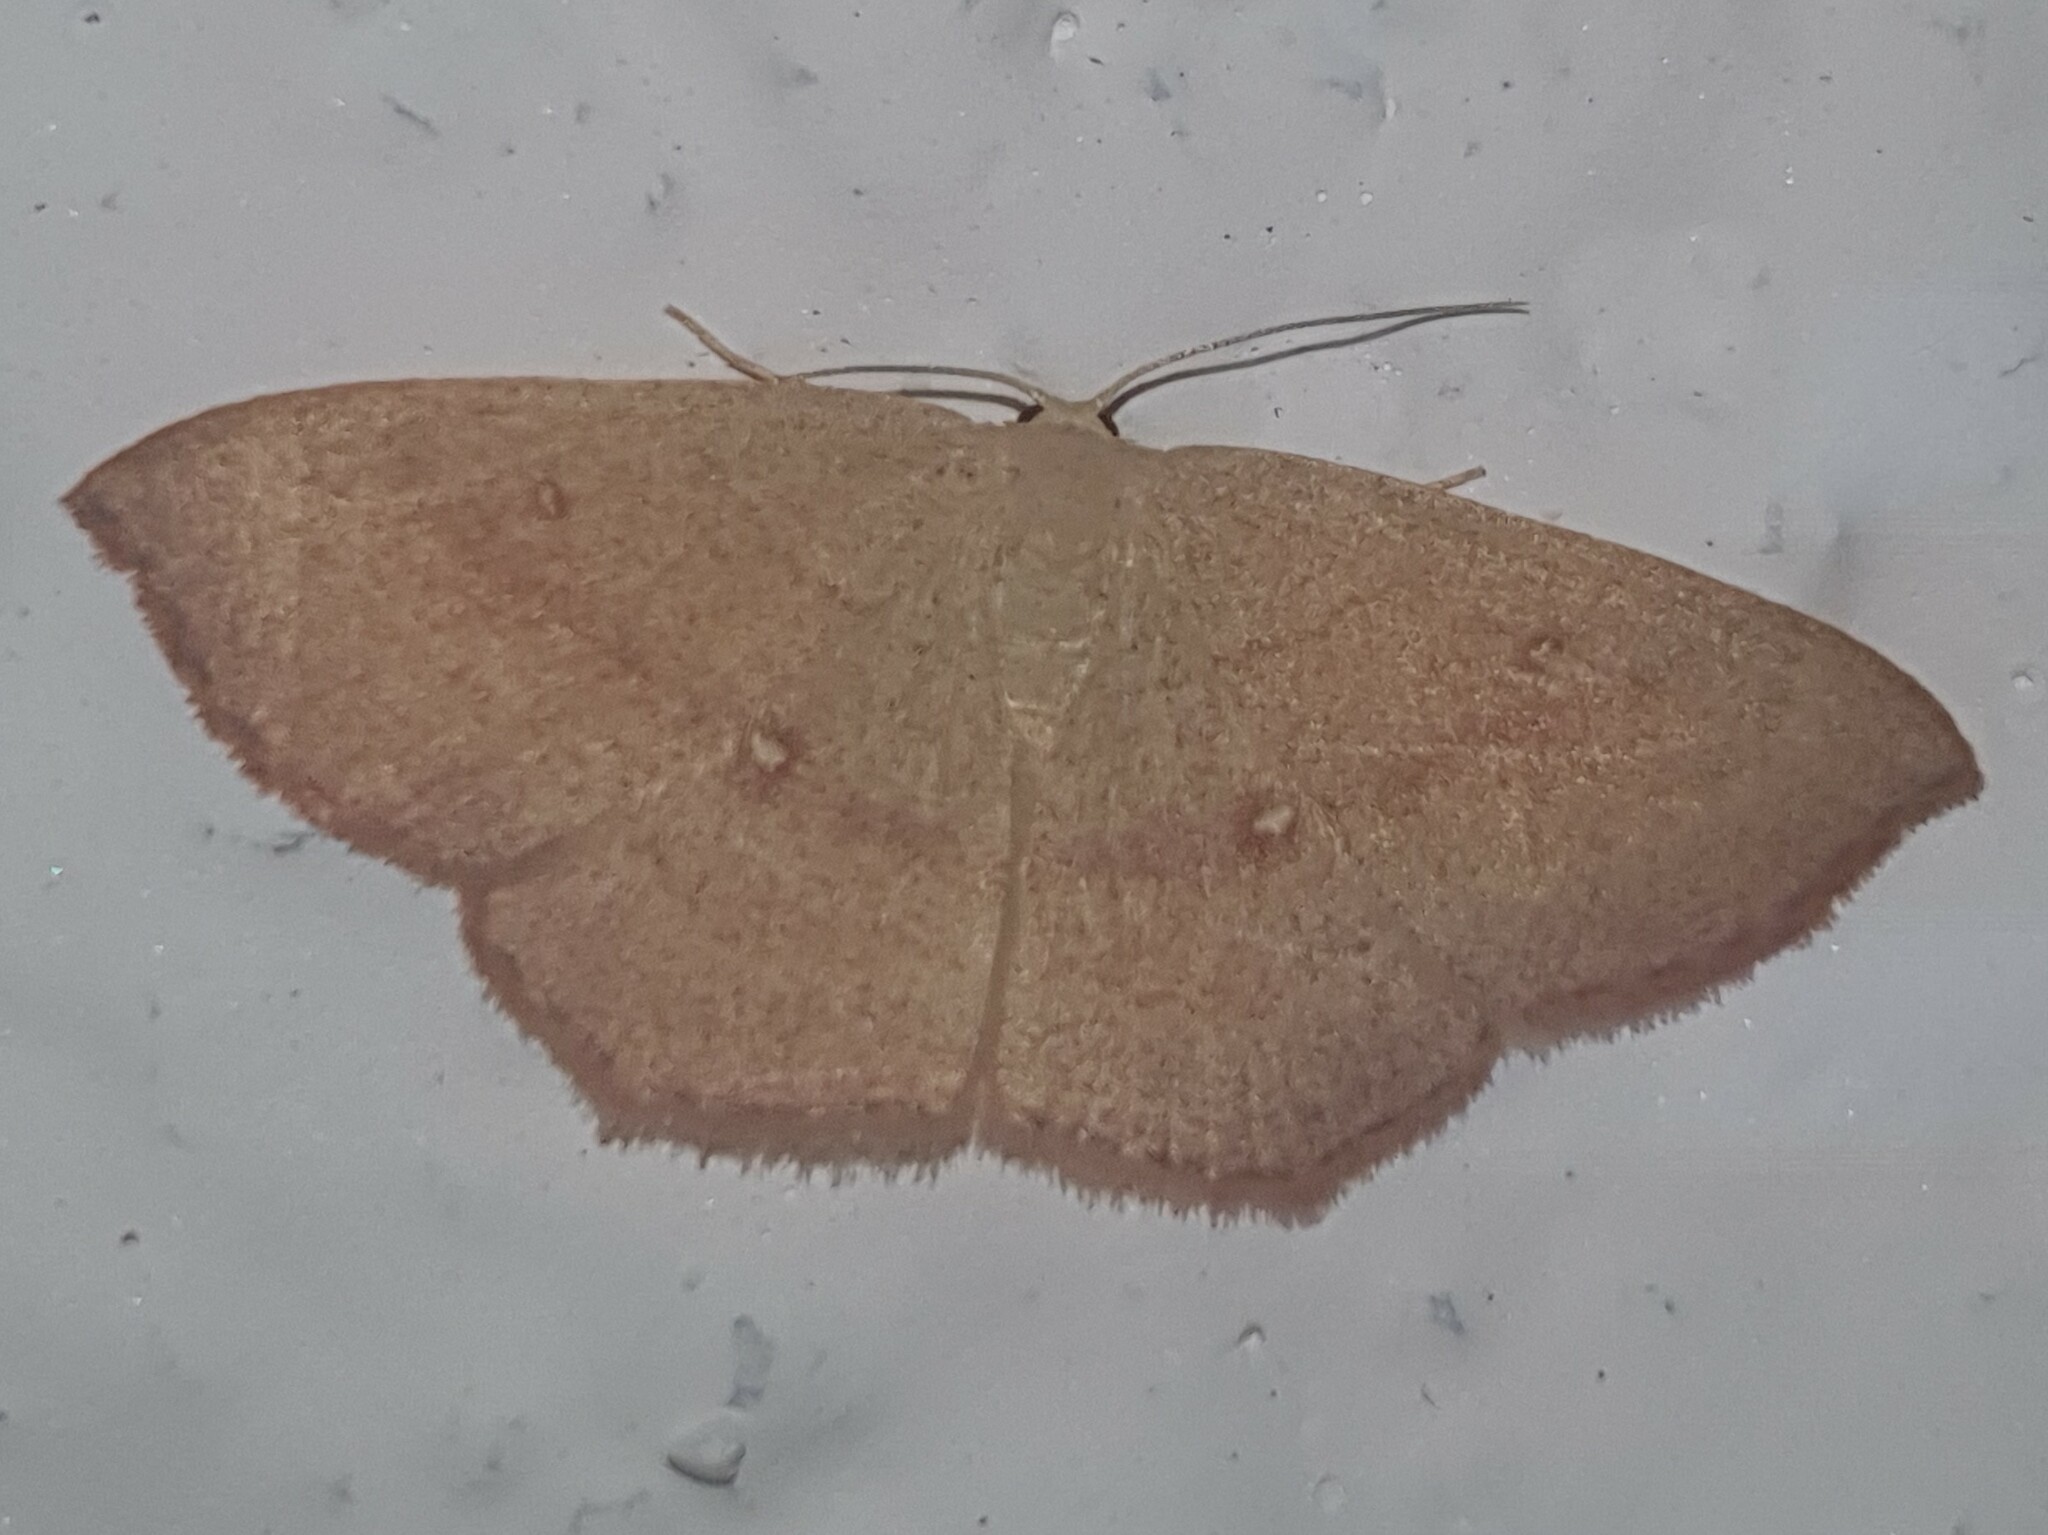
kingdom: Animalia
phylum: Arthropoda
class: Insecta
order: Lepidoptera
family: Geometridae
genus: Cyclophora
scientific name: Cyclophora linearia
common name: Clay triple-lines
